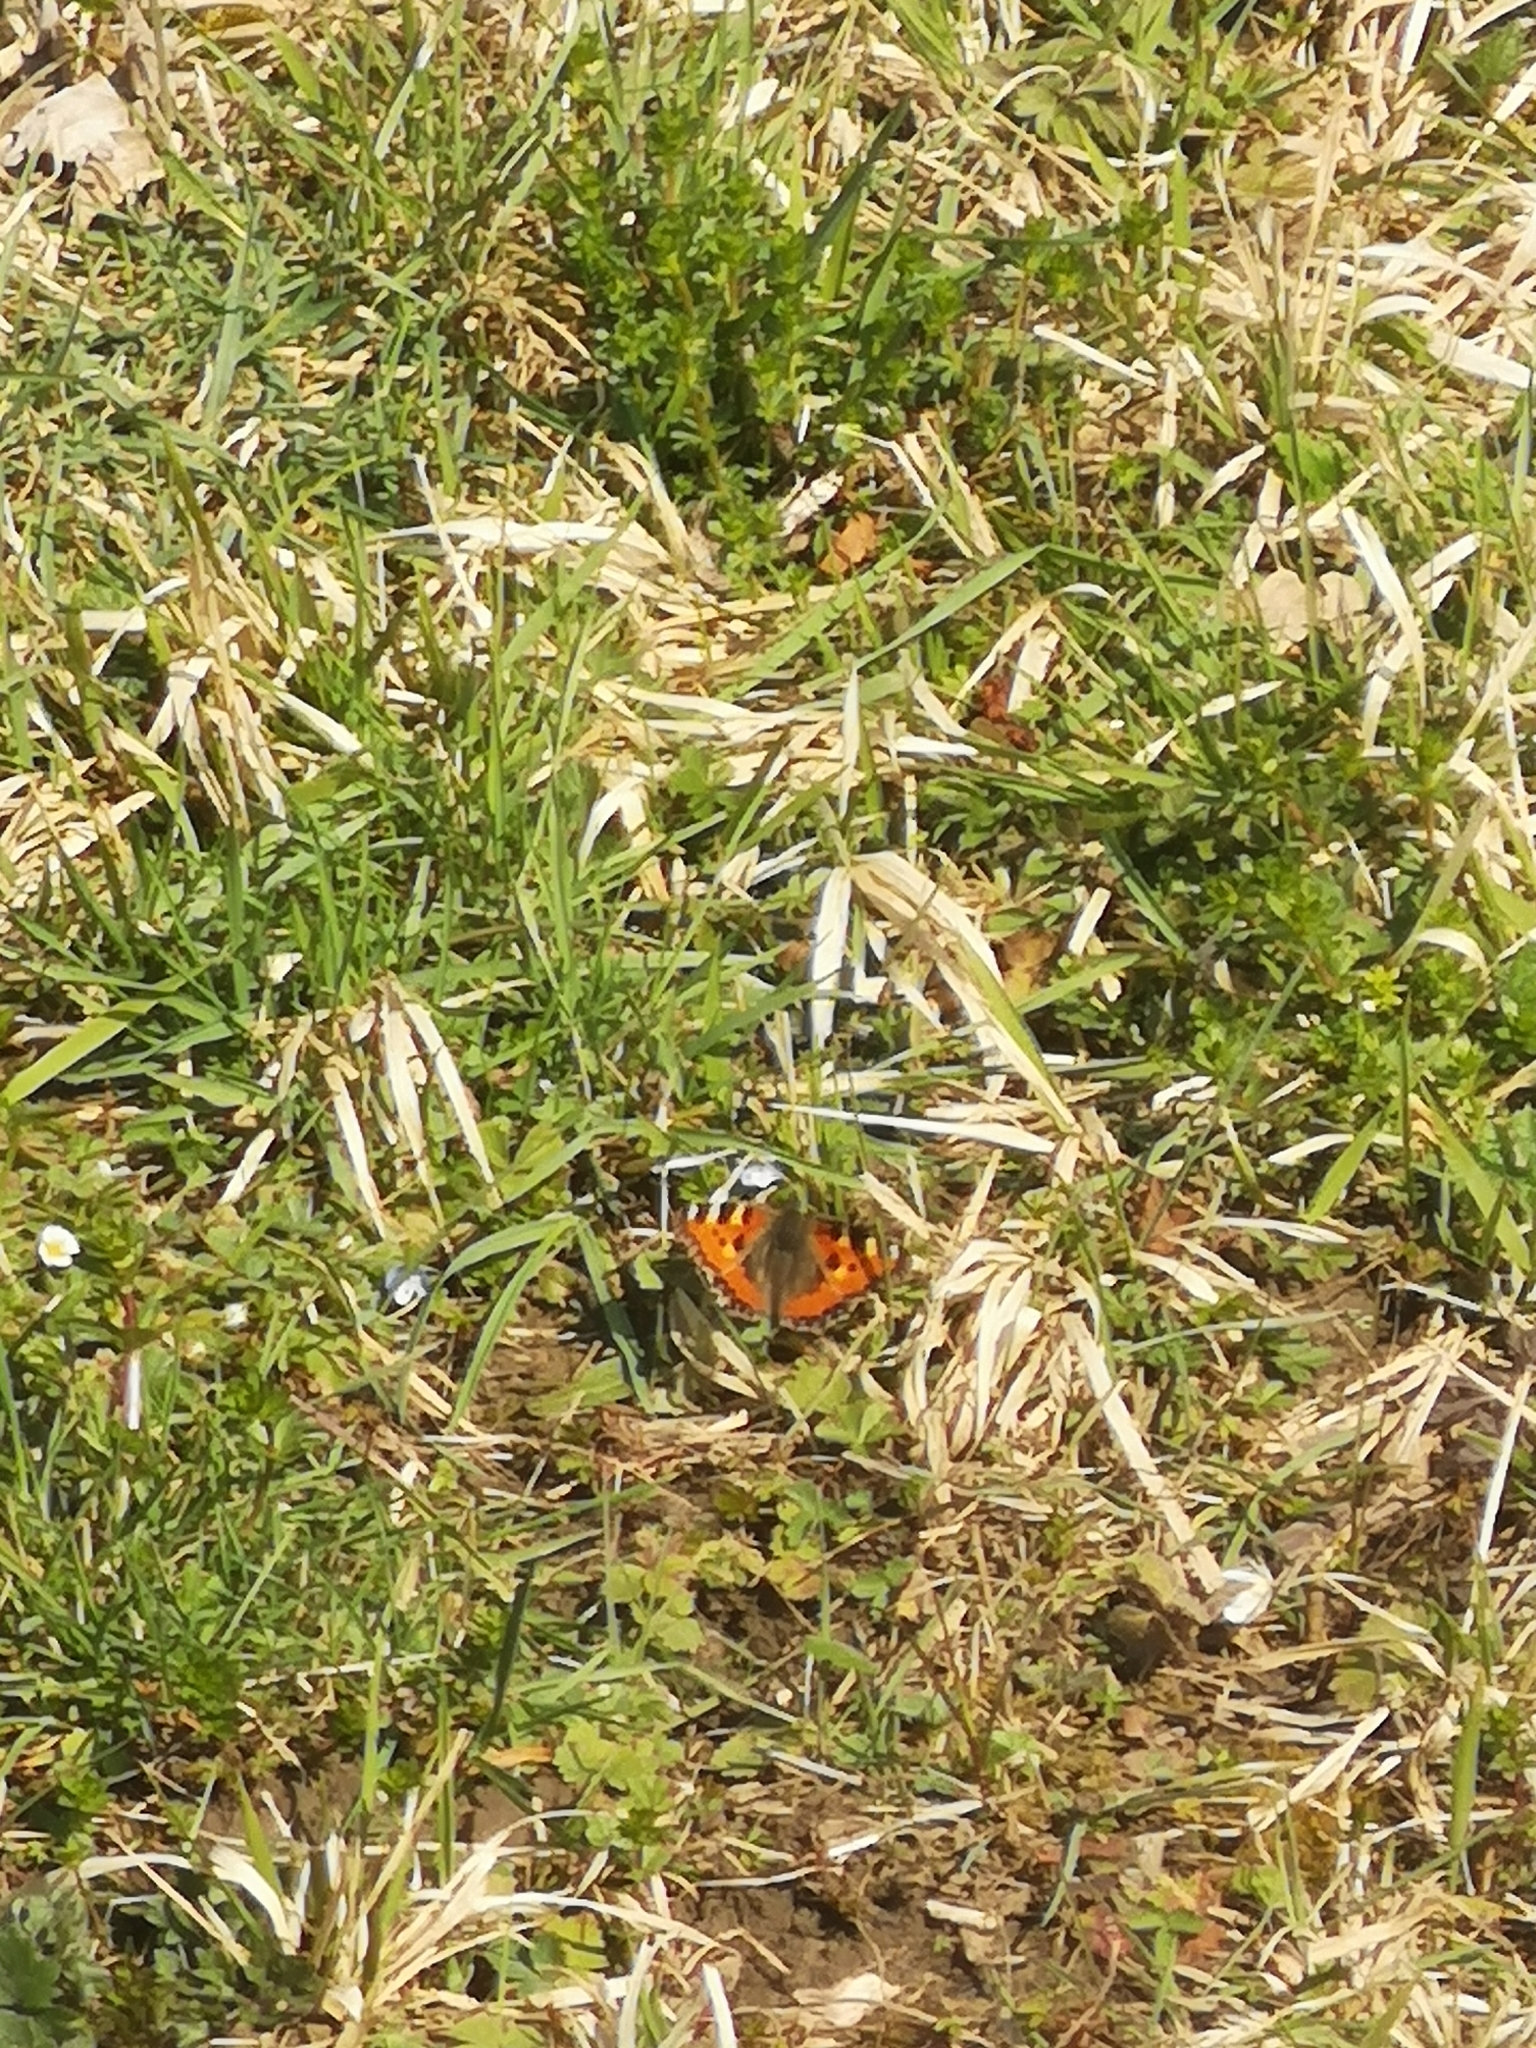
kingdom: Animalia
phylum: Arthropoda
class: Insecta
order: Lepidoptera
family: Nymphalidae
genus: Aglais
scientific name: Aglais urticae
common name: Small tortoiseshell
